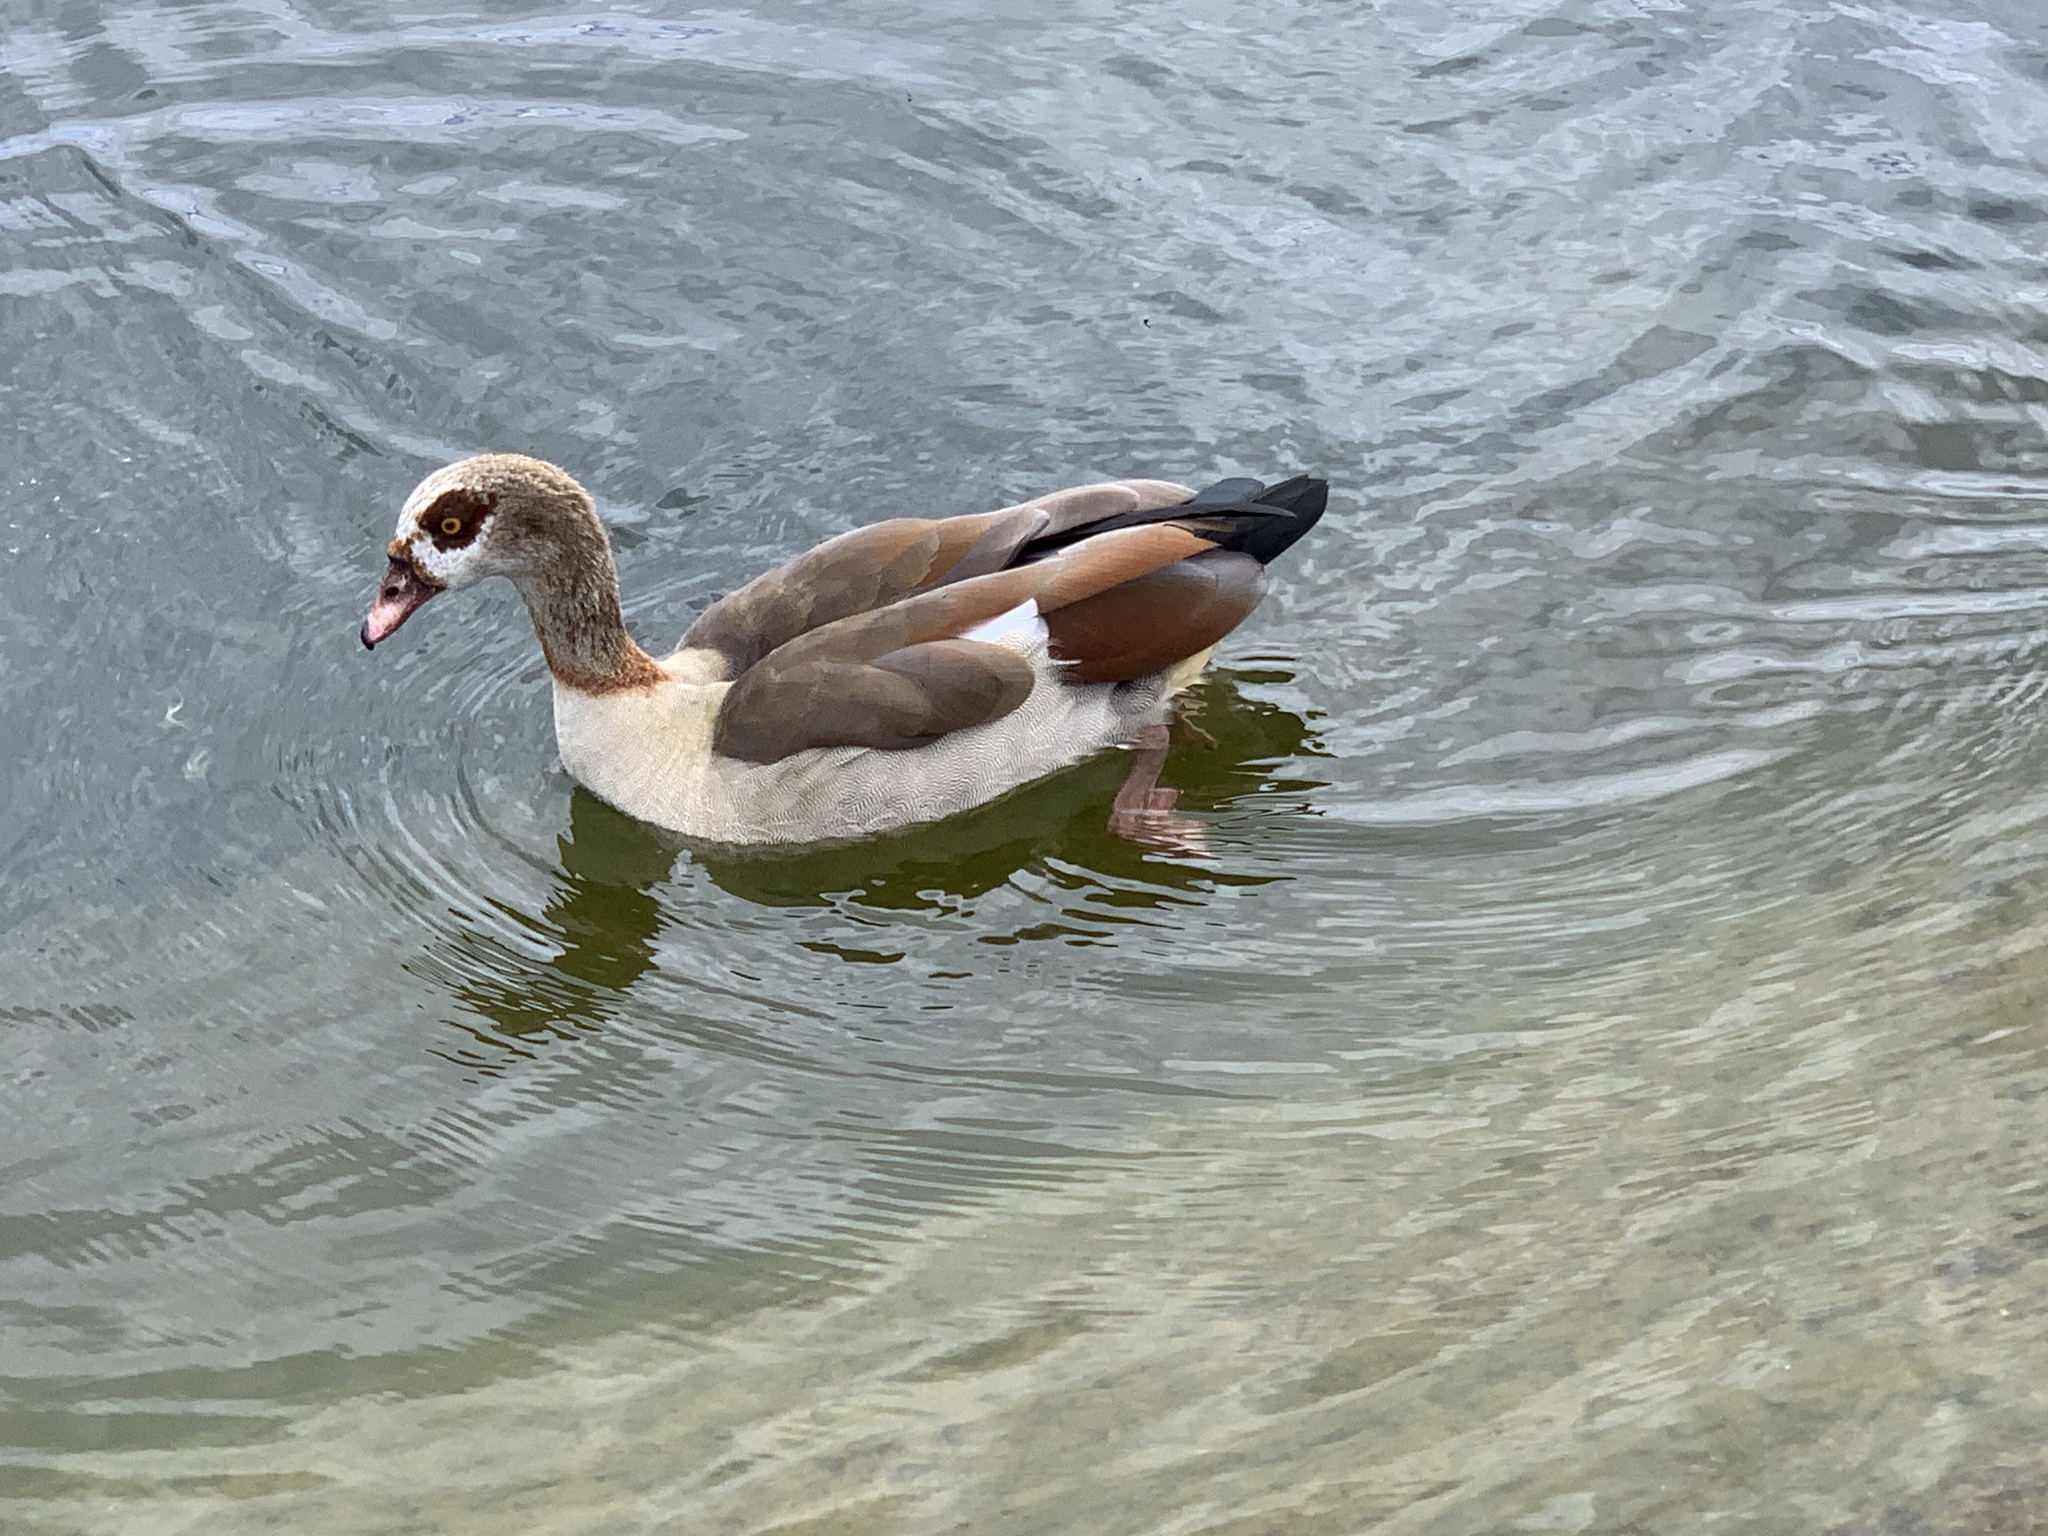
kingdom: Animalia
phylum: Chordata
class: Aves
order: Anseriformes
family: Anatidae
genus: Alopochen
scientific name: Alopochen aegyptiaca
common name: Egyptian goose
